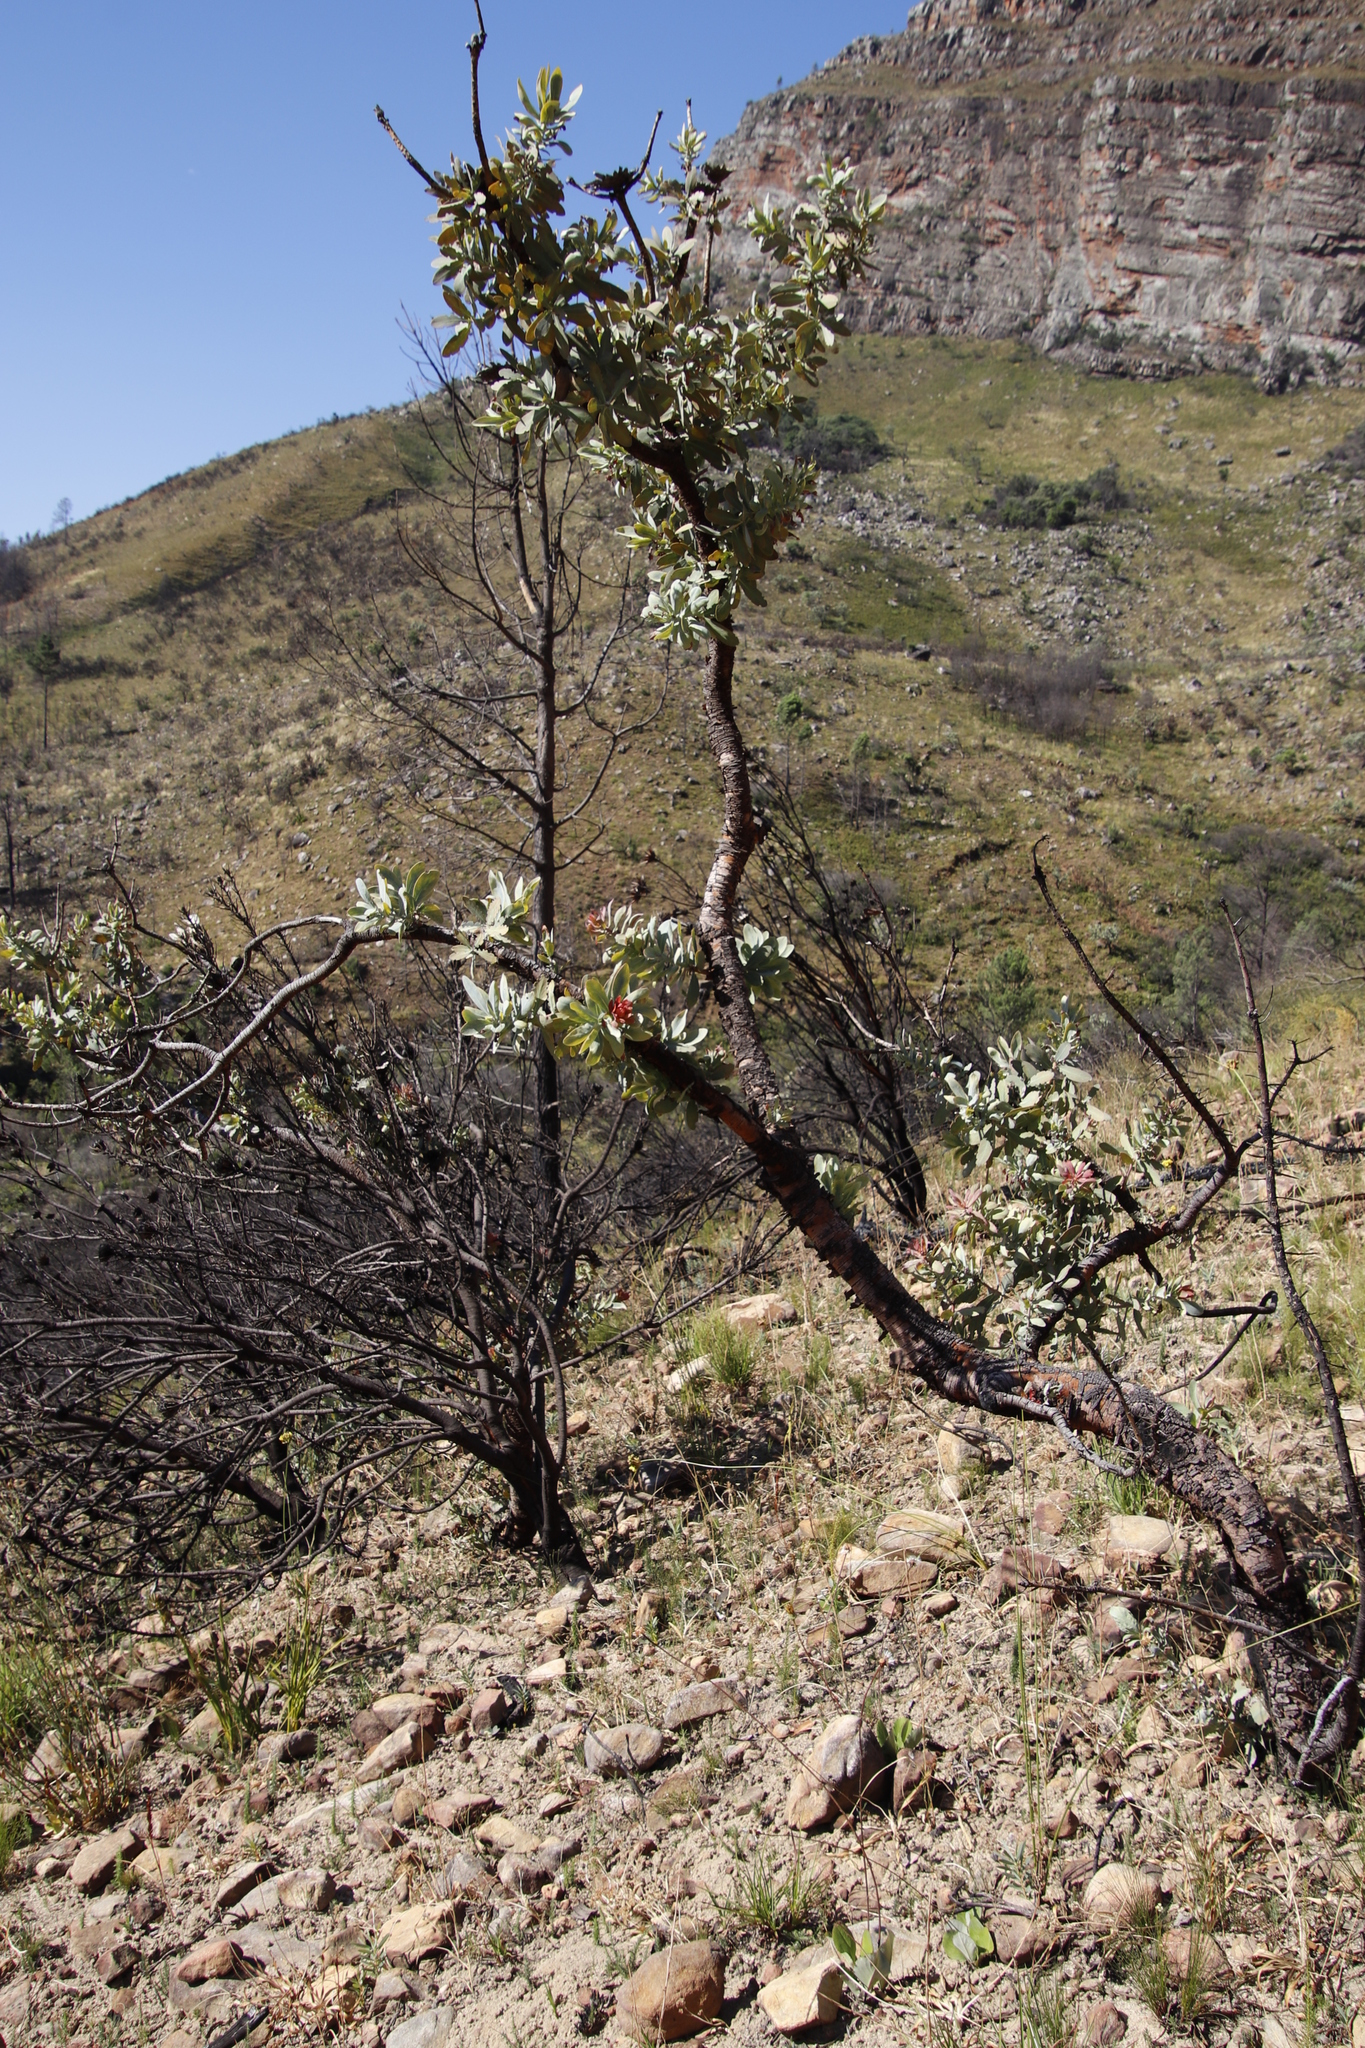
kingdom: Plantae
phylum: Tracheophyta
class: Magnoliopsida
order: Proteales
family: Proteaceae
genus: Protea
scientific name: Protea nitida
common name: Tree protea
